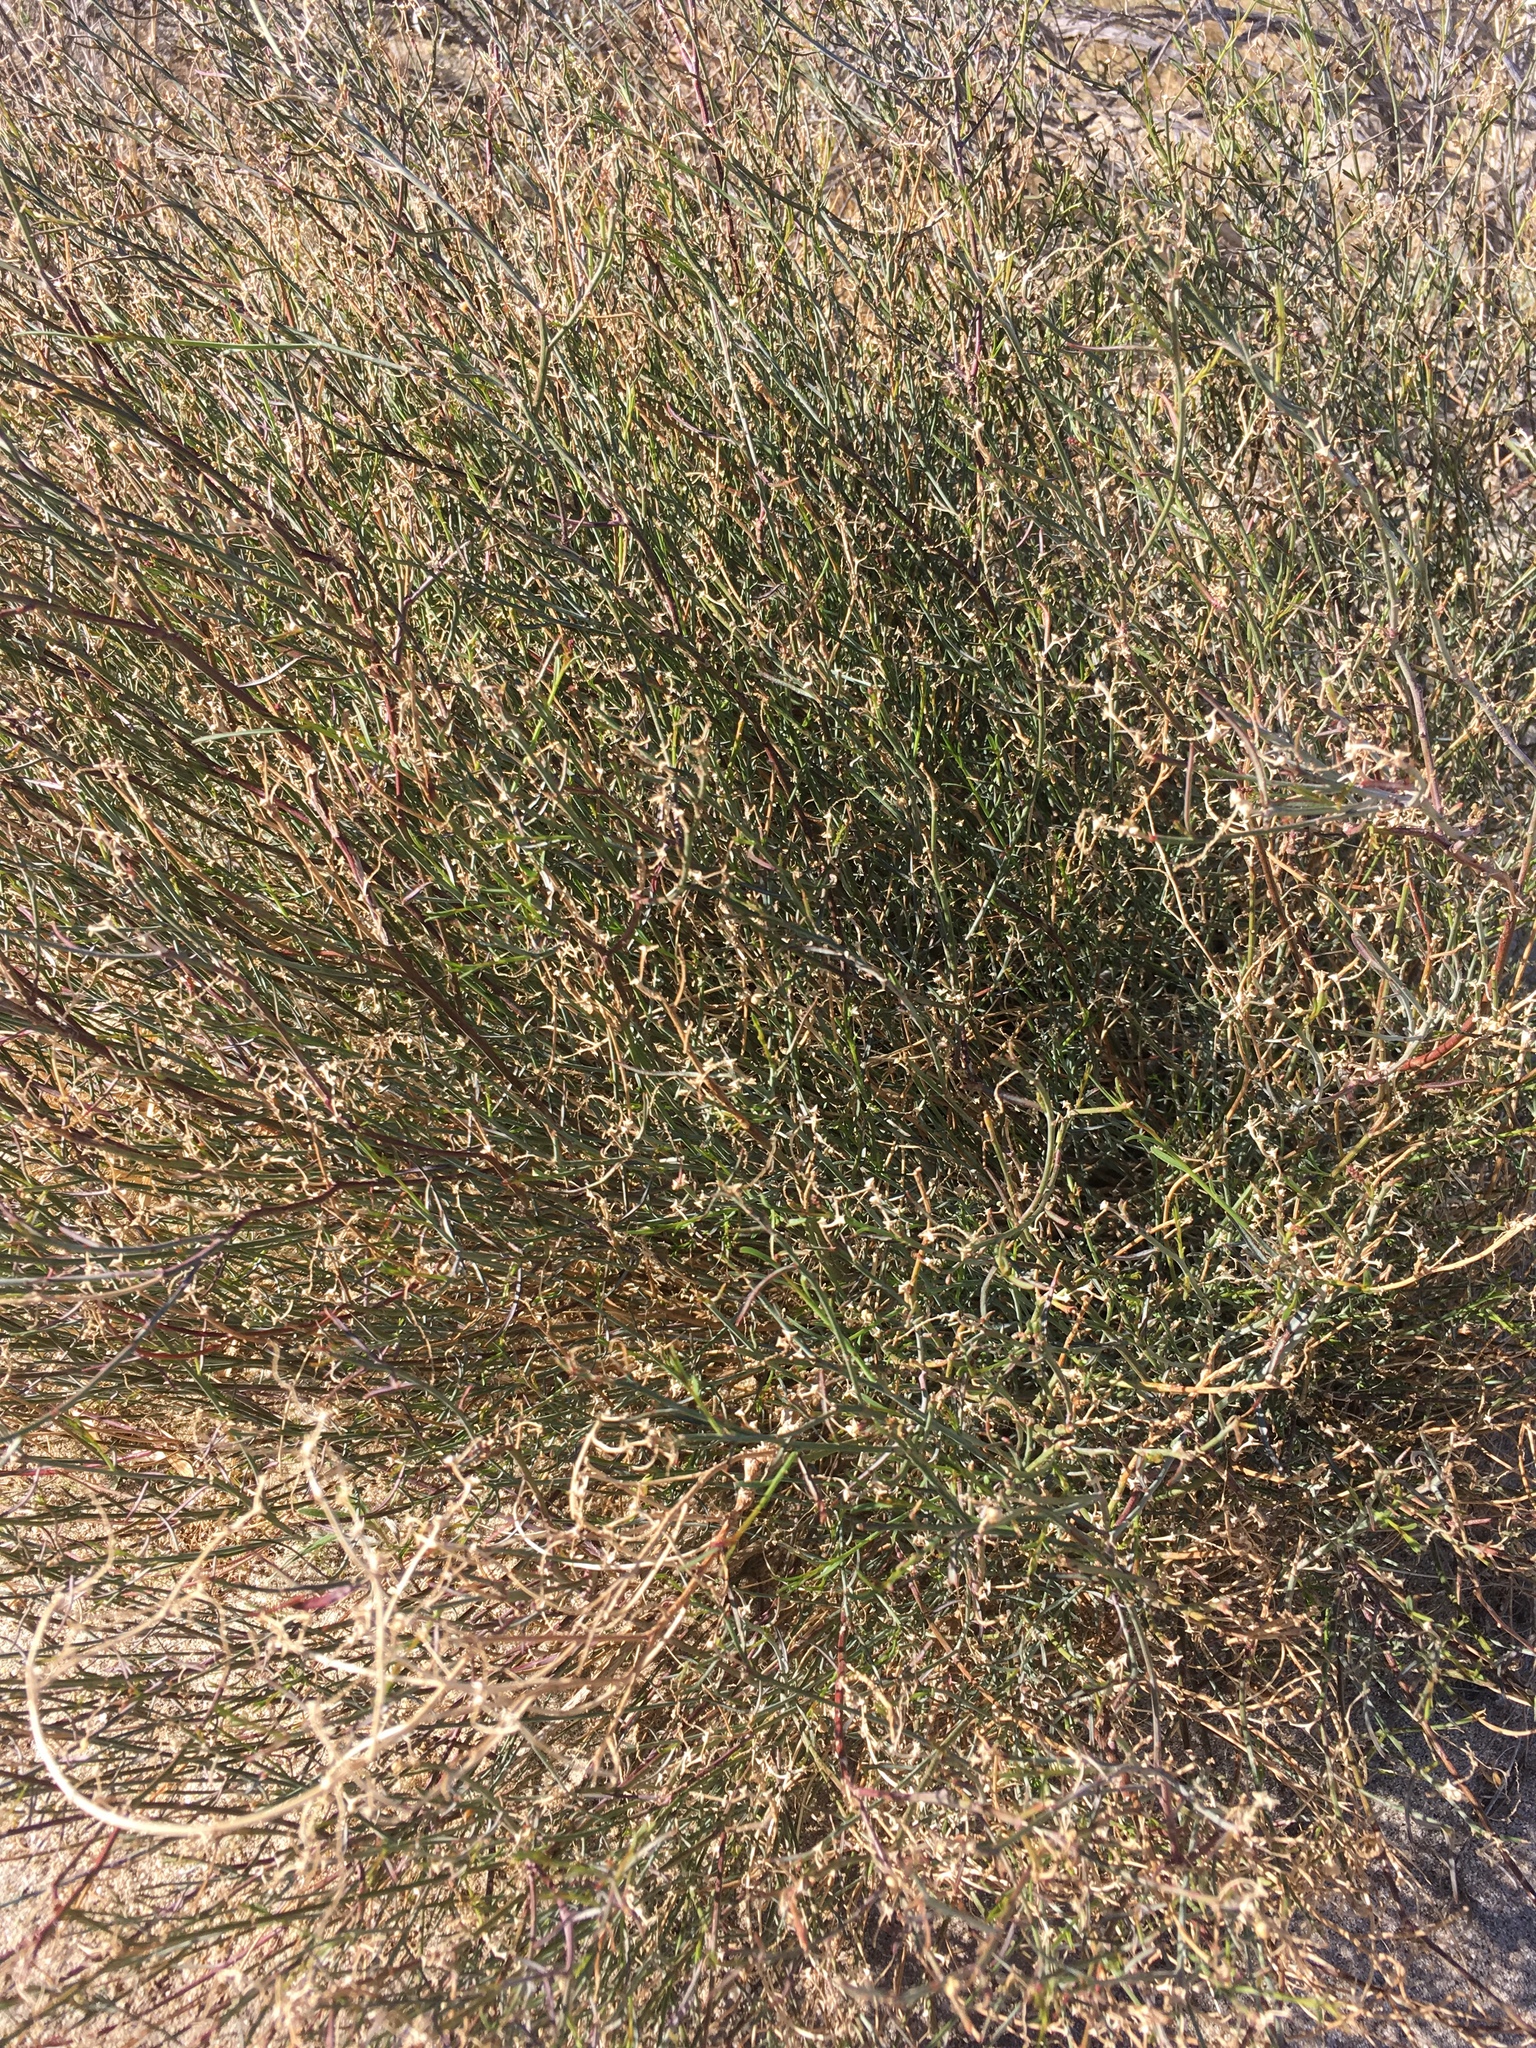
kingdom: Plantae
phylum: Tracheophyta
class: Magnoliopsida
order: Malpighiales
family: Euphorbiaceae
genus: Stillingia
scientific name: Stillingia linearifolia
